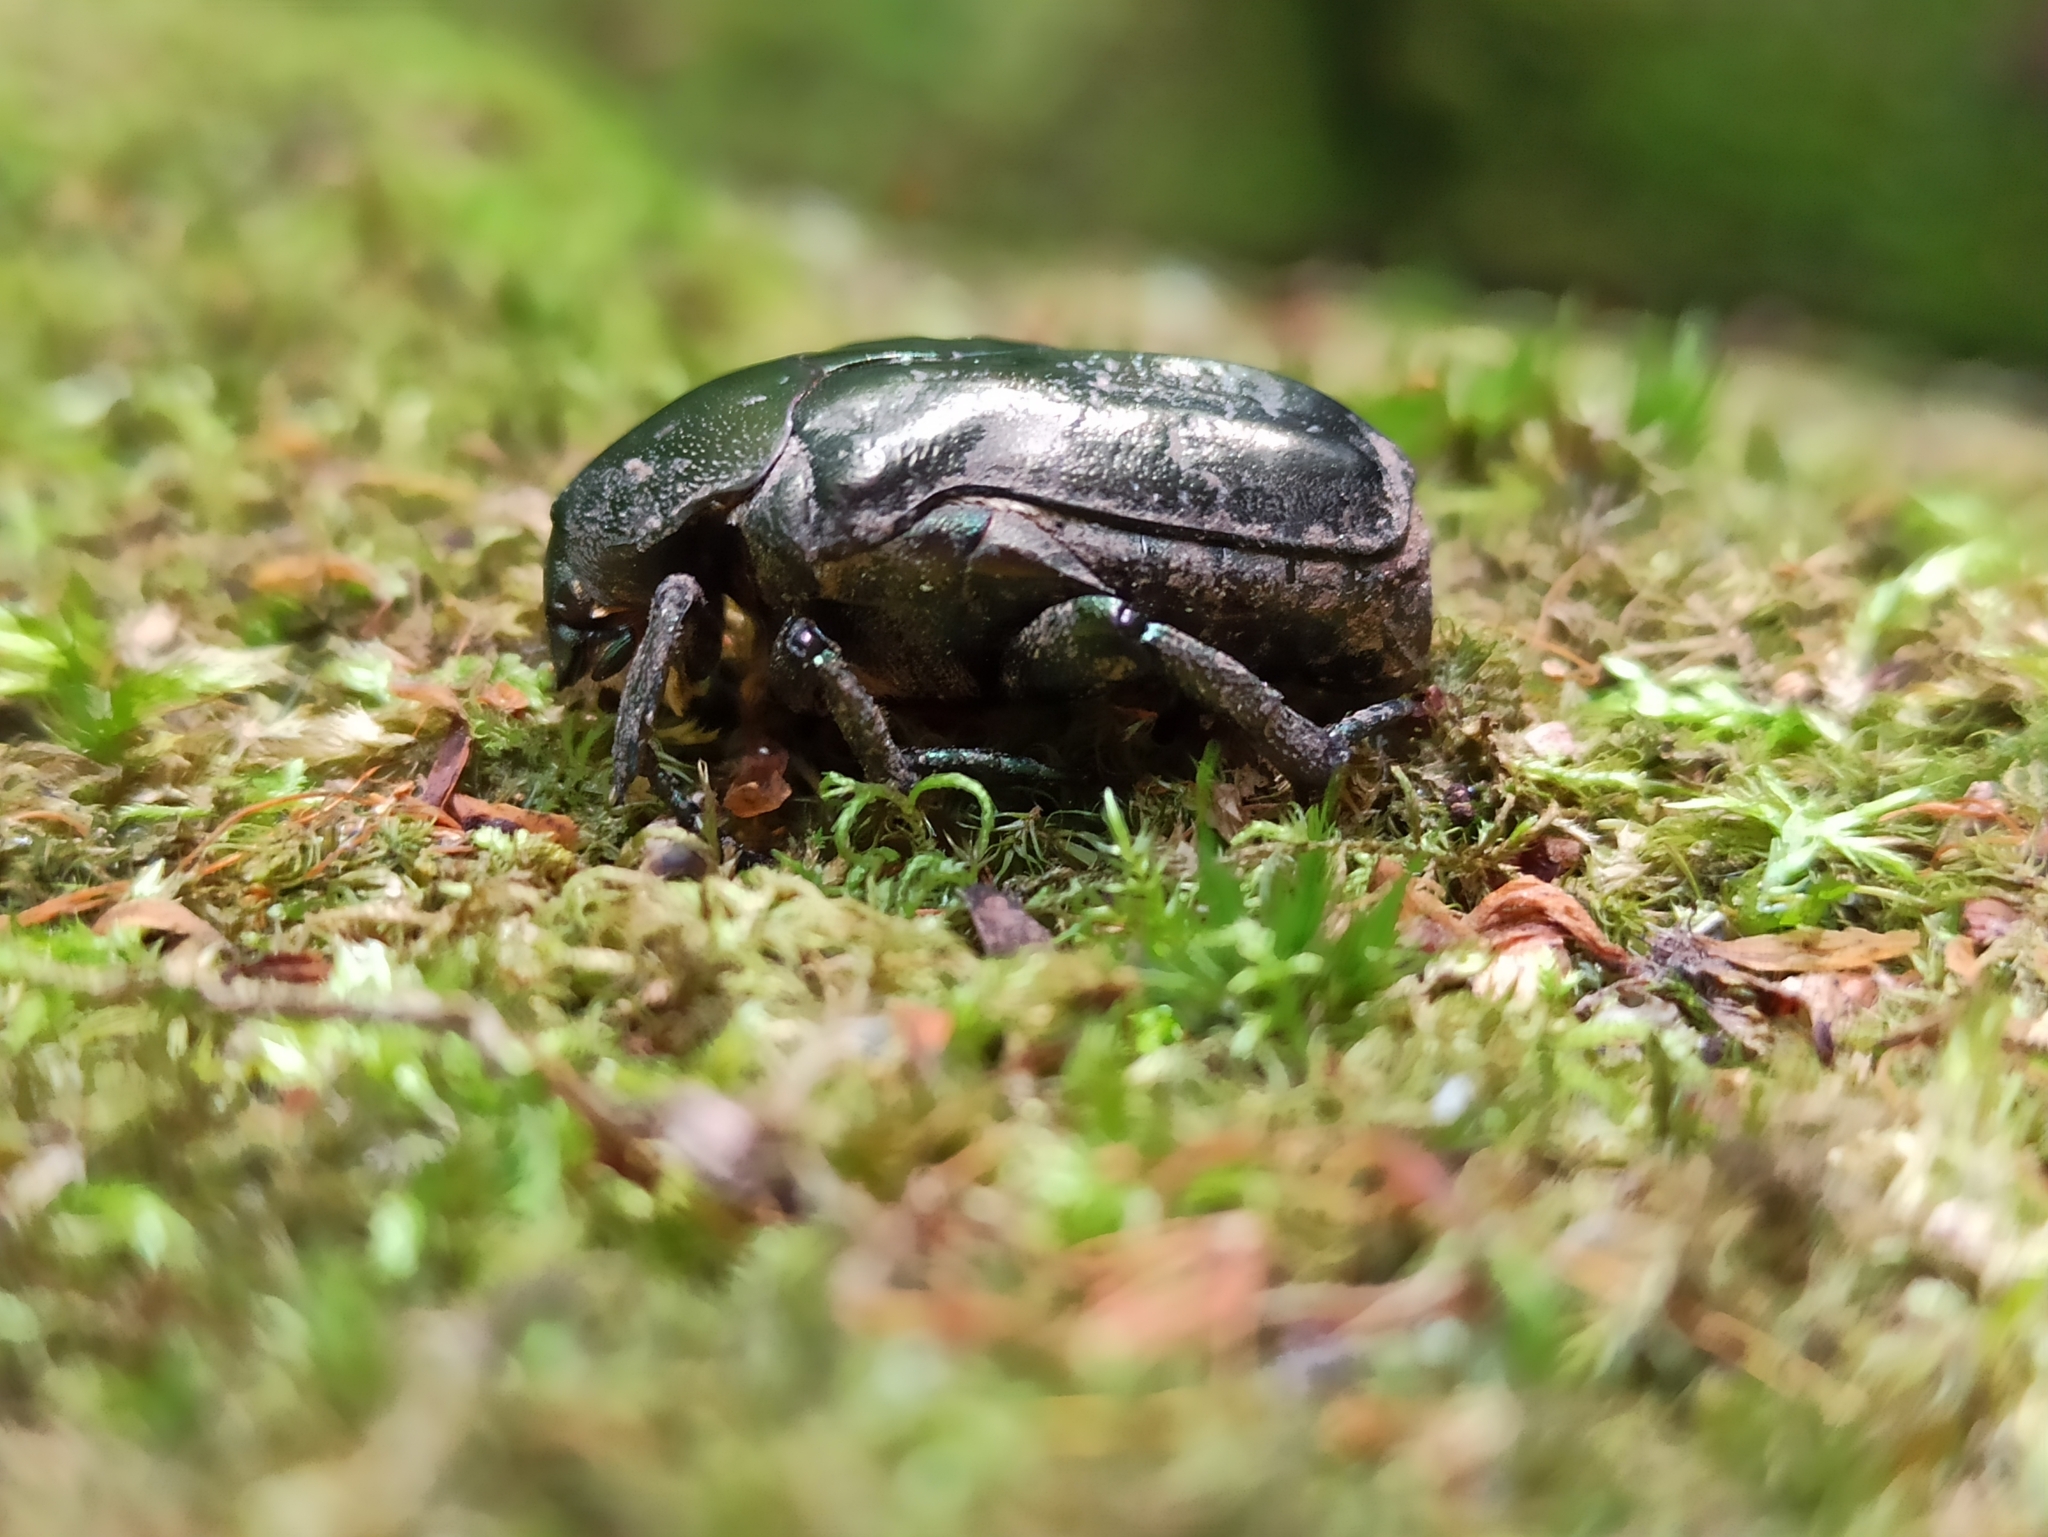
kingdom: Animalia
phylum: Arthropoda
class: Insecta
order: Coleoptera
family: Scarabaeidae
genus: Protaetia
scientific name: Protaetia cuprea
